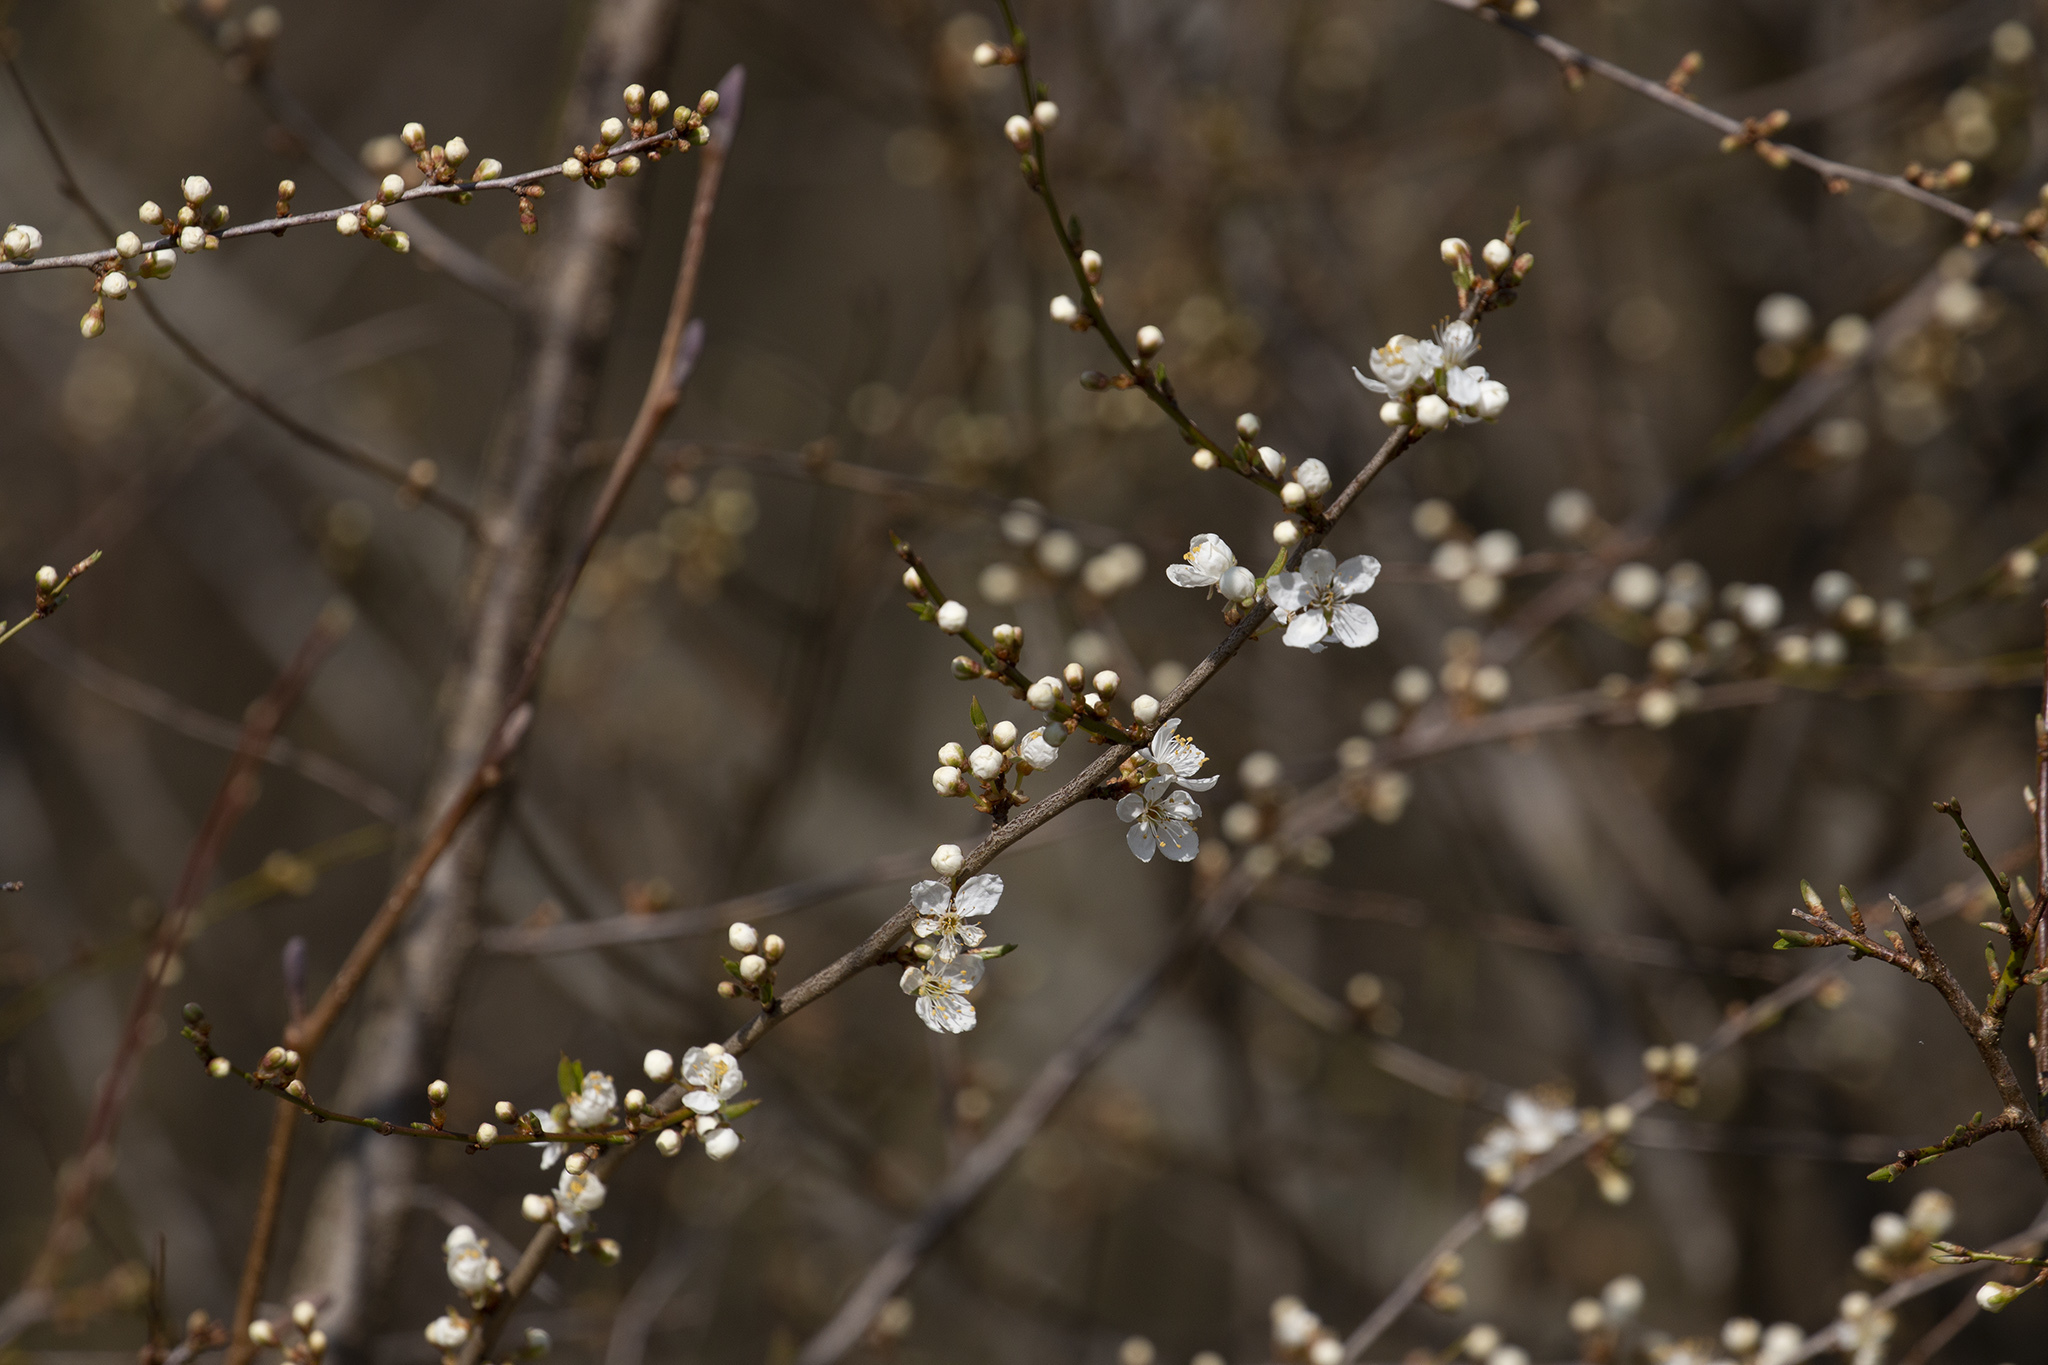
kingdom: Plantae
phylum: Tracheophyta
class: Magnoliopsida
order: Rosales
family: Rosaceae
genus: Prunus
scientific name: Prunus cerasifera
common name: Cherry plum
